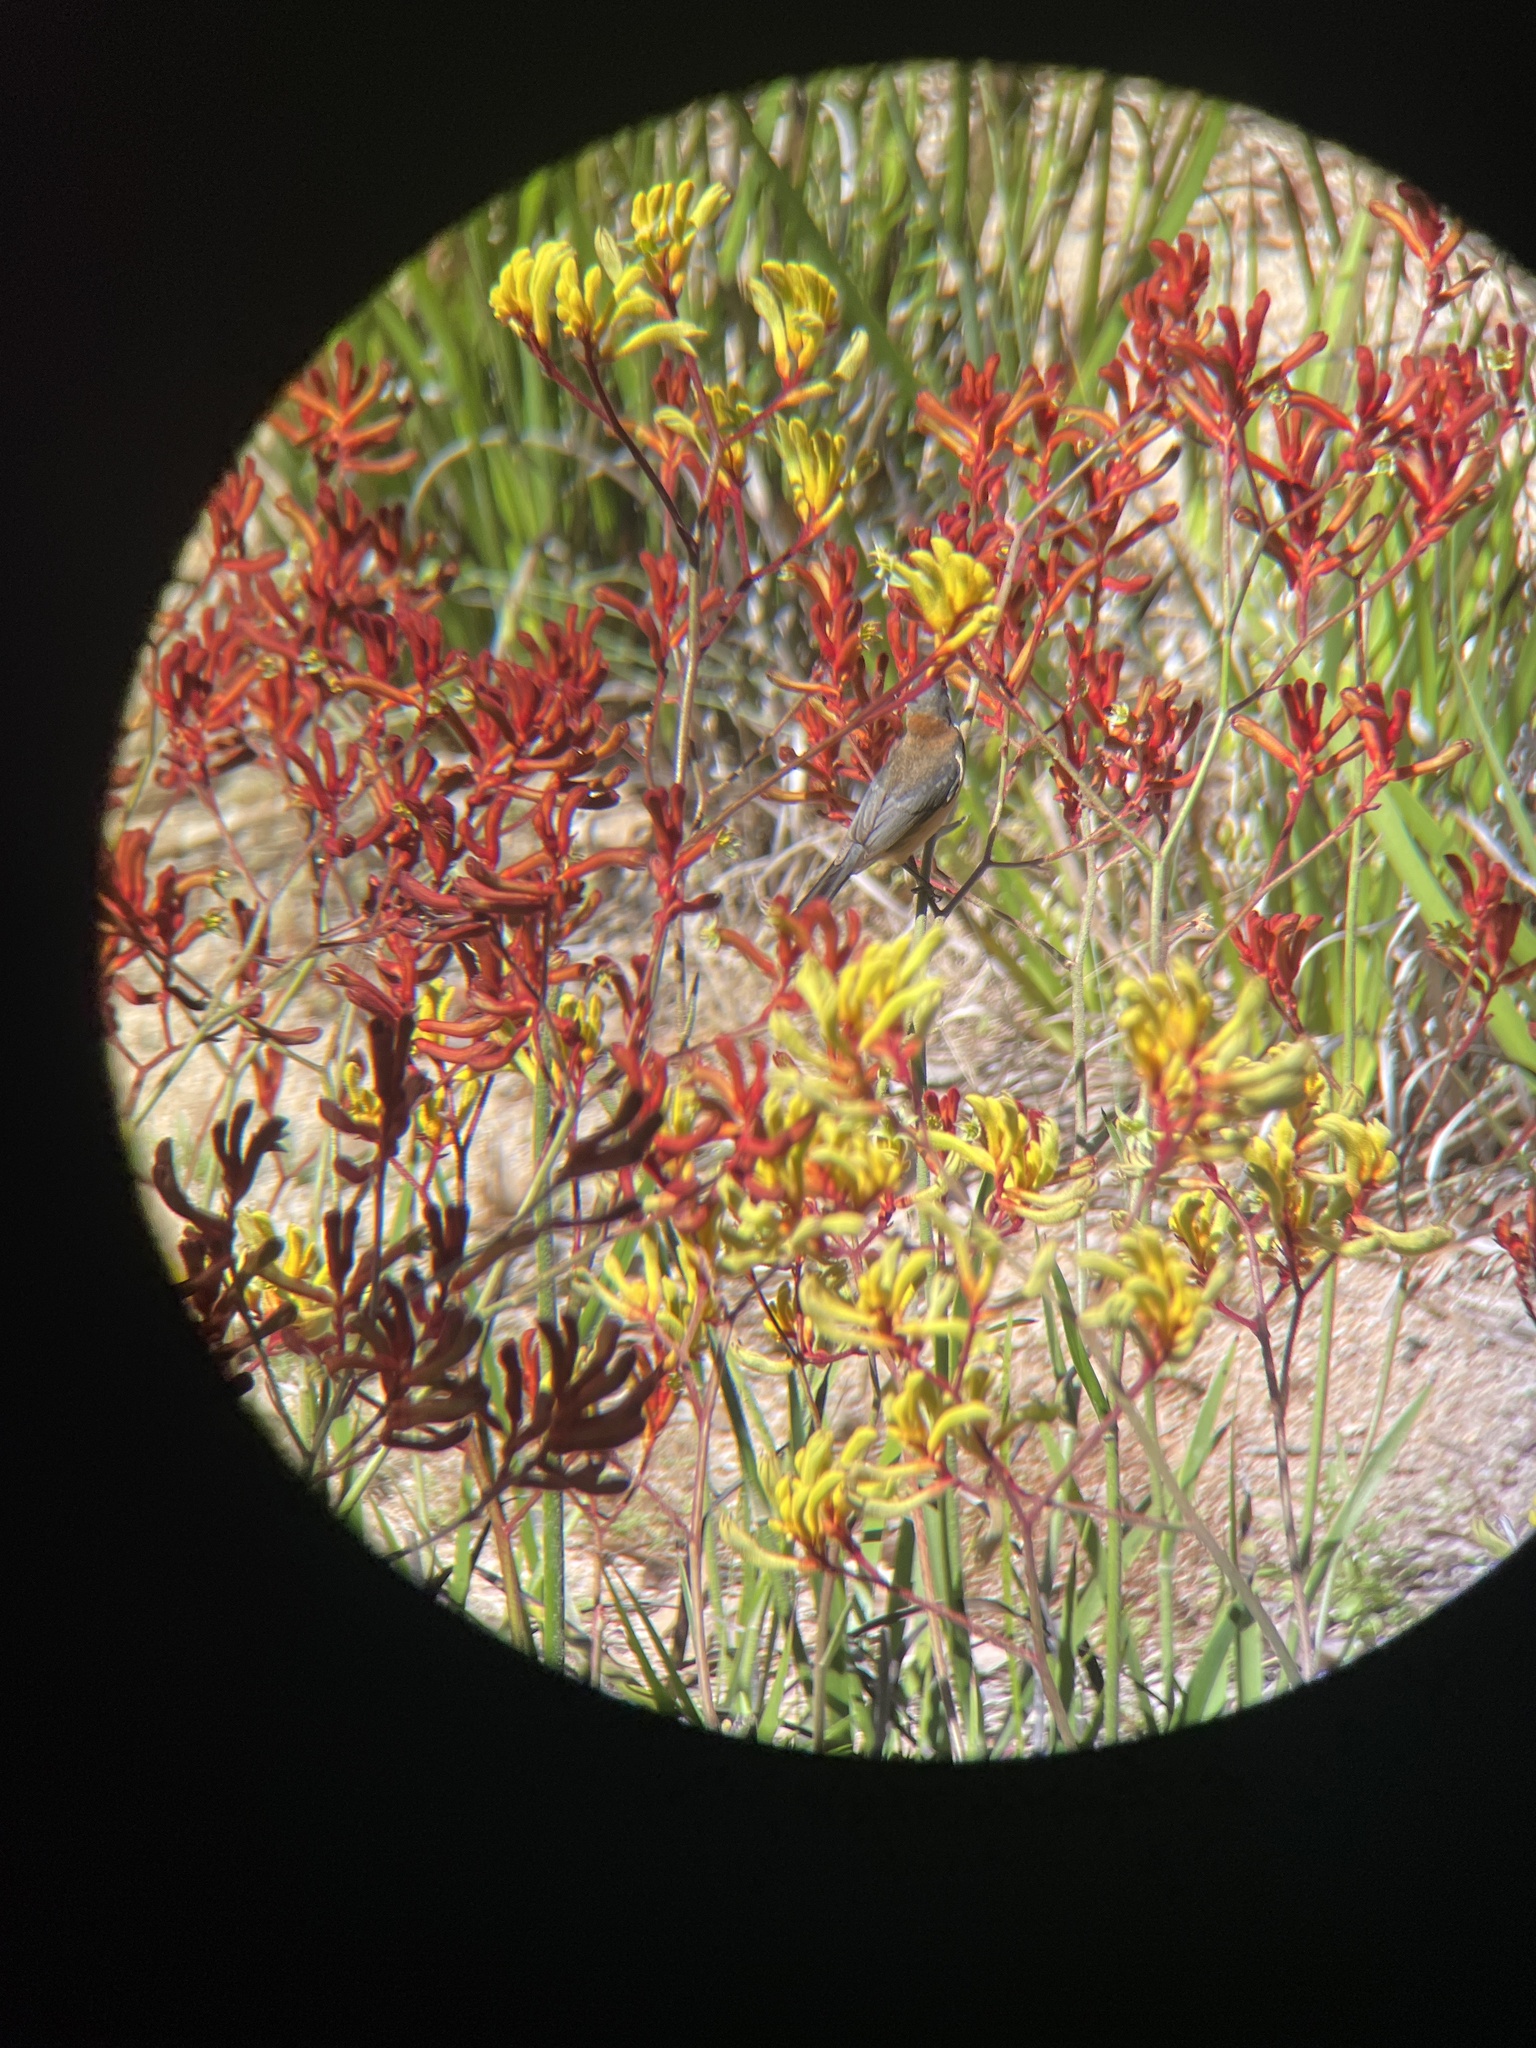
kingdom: Animalia
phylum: Chordata
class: Aves
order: Passeriformes
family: Meliphagidae
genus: Acanthorhynchus
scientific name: Acanthorhynchus tenuirostris
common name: Eastern spinebill
